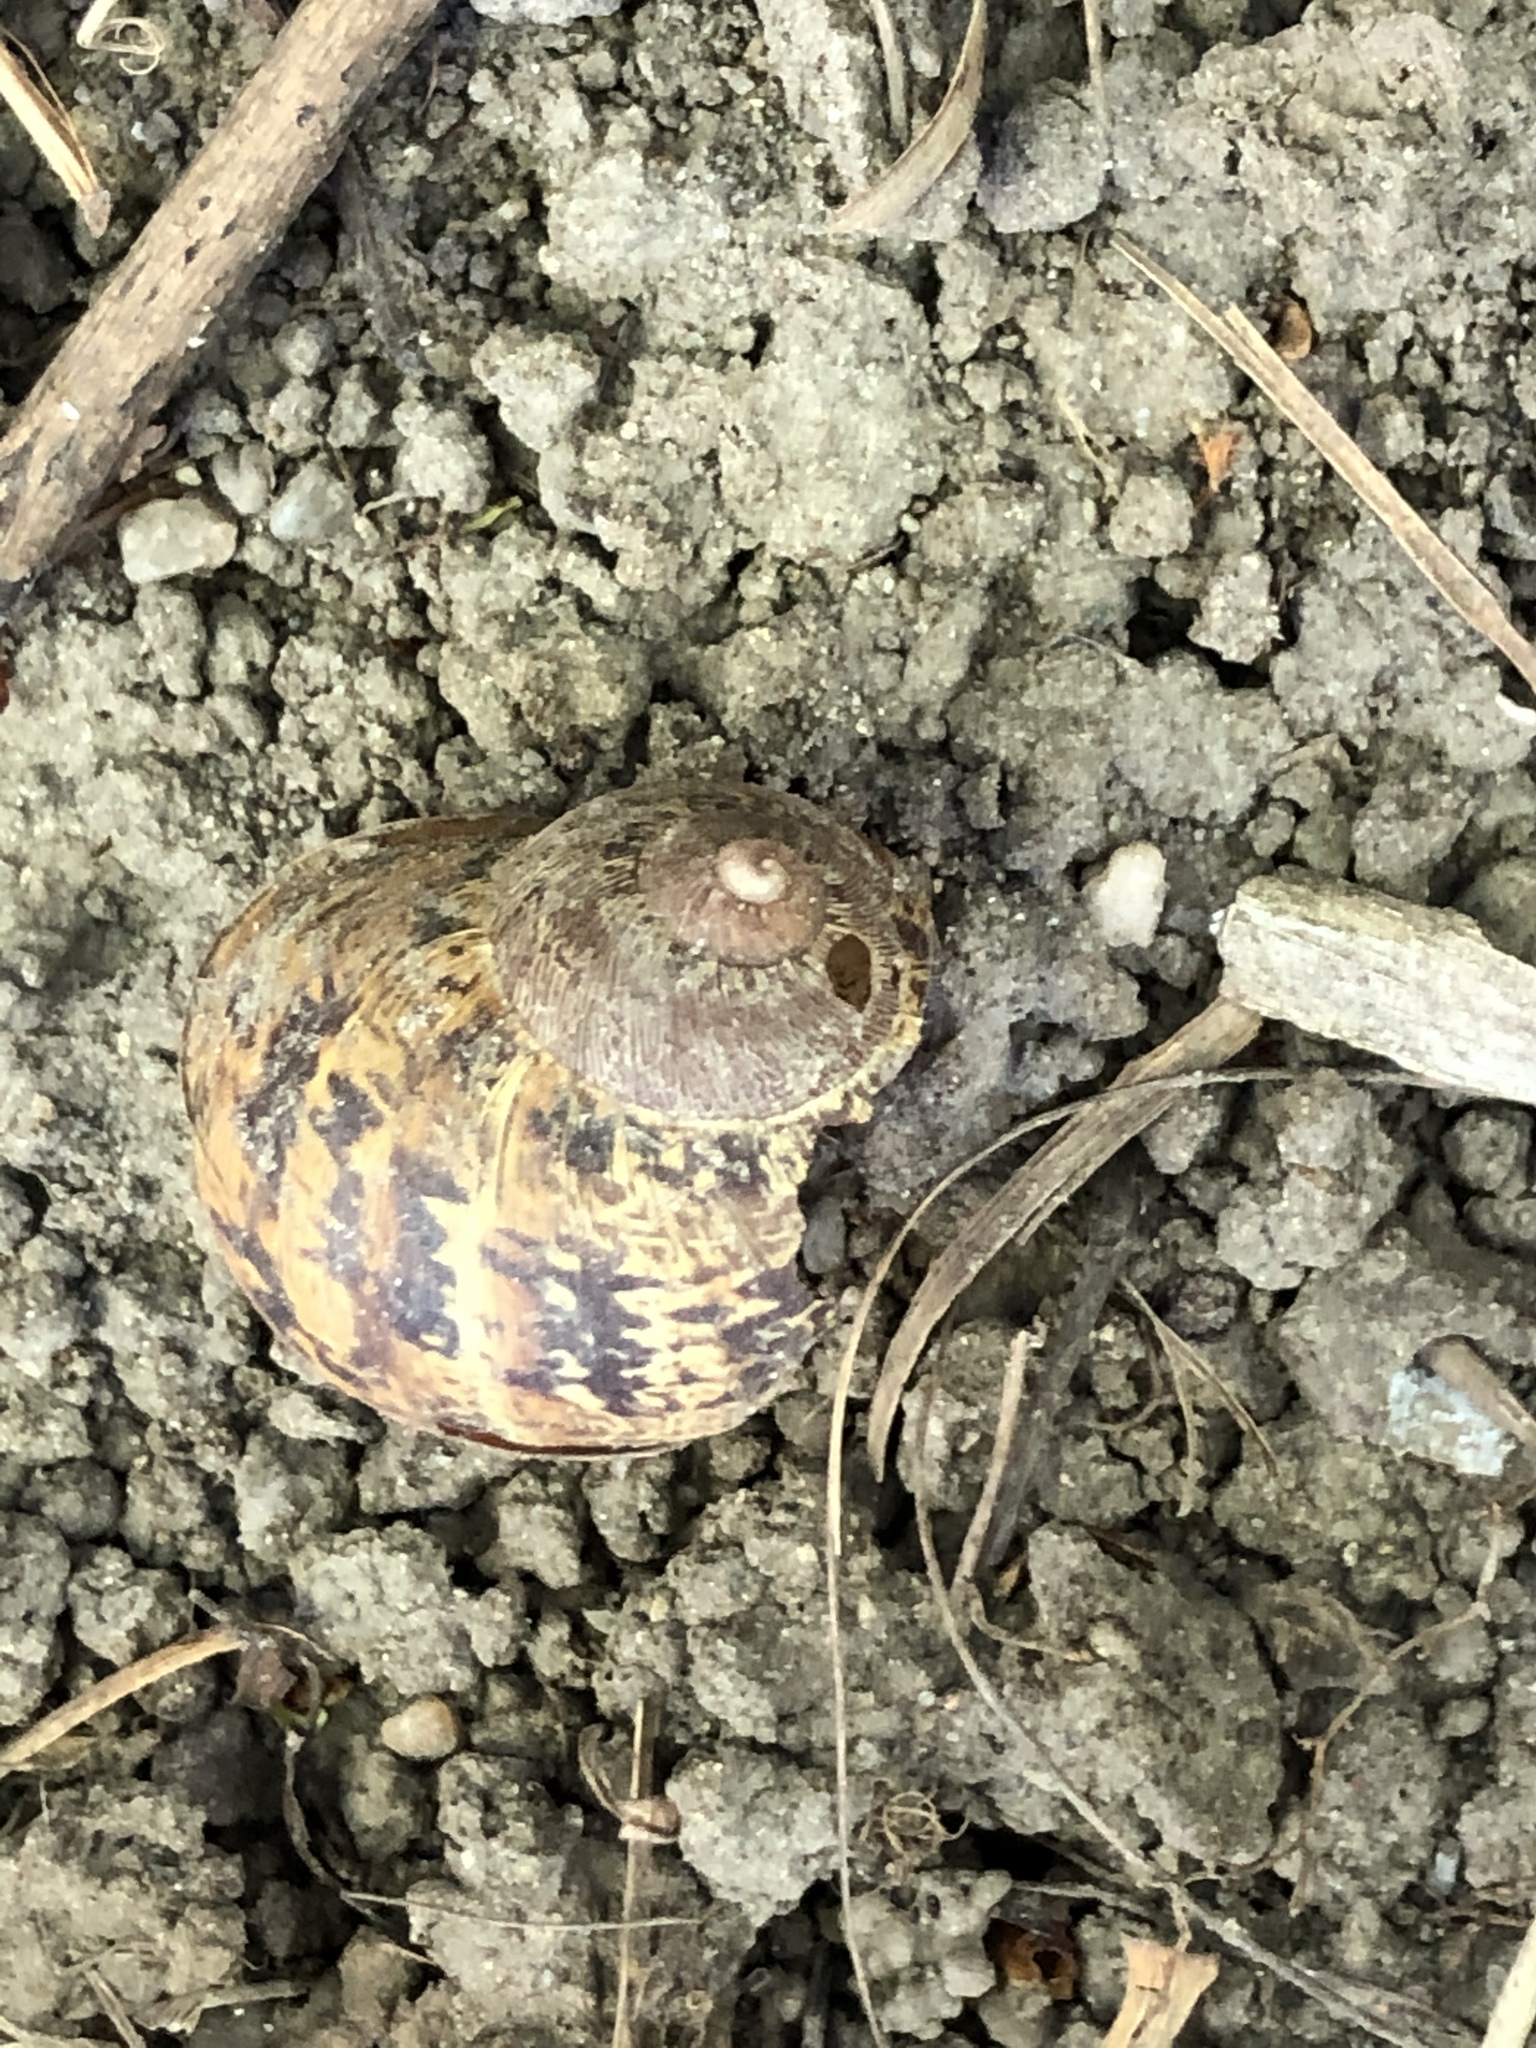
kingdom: Animalia
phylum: Mollusca
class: Gastropoda
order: Stylommatophora
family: Helicidae
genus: Cornu
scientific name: Cornu aspersum
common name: Brown garden snail
